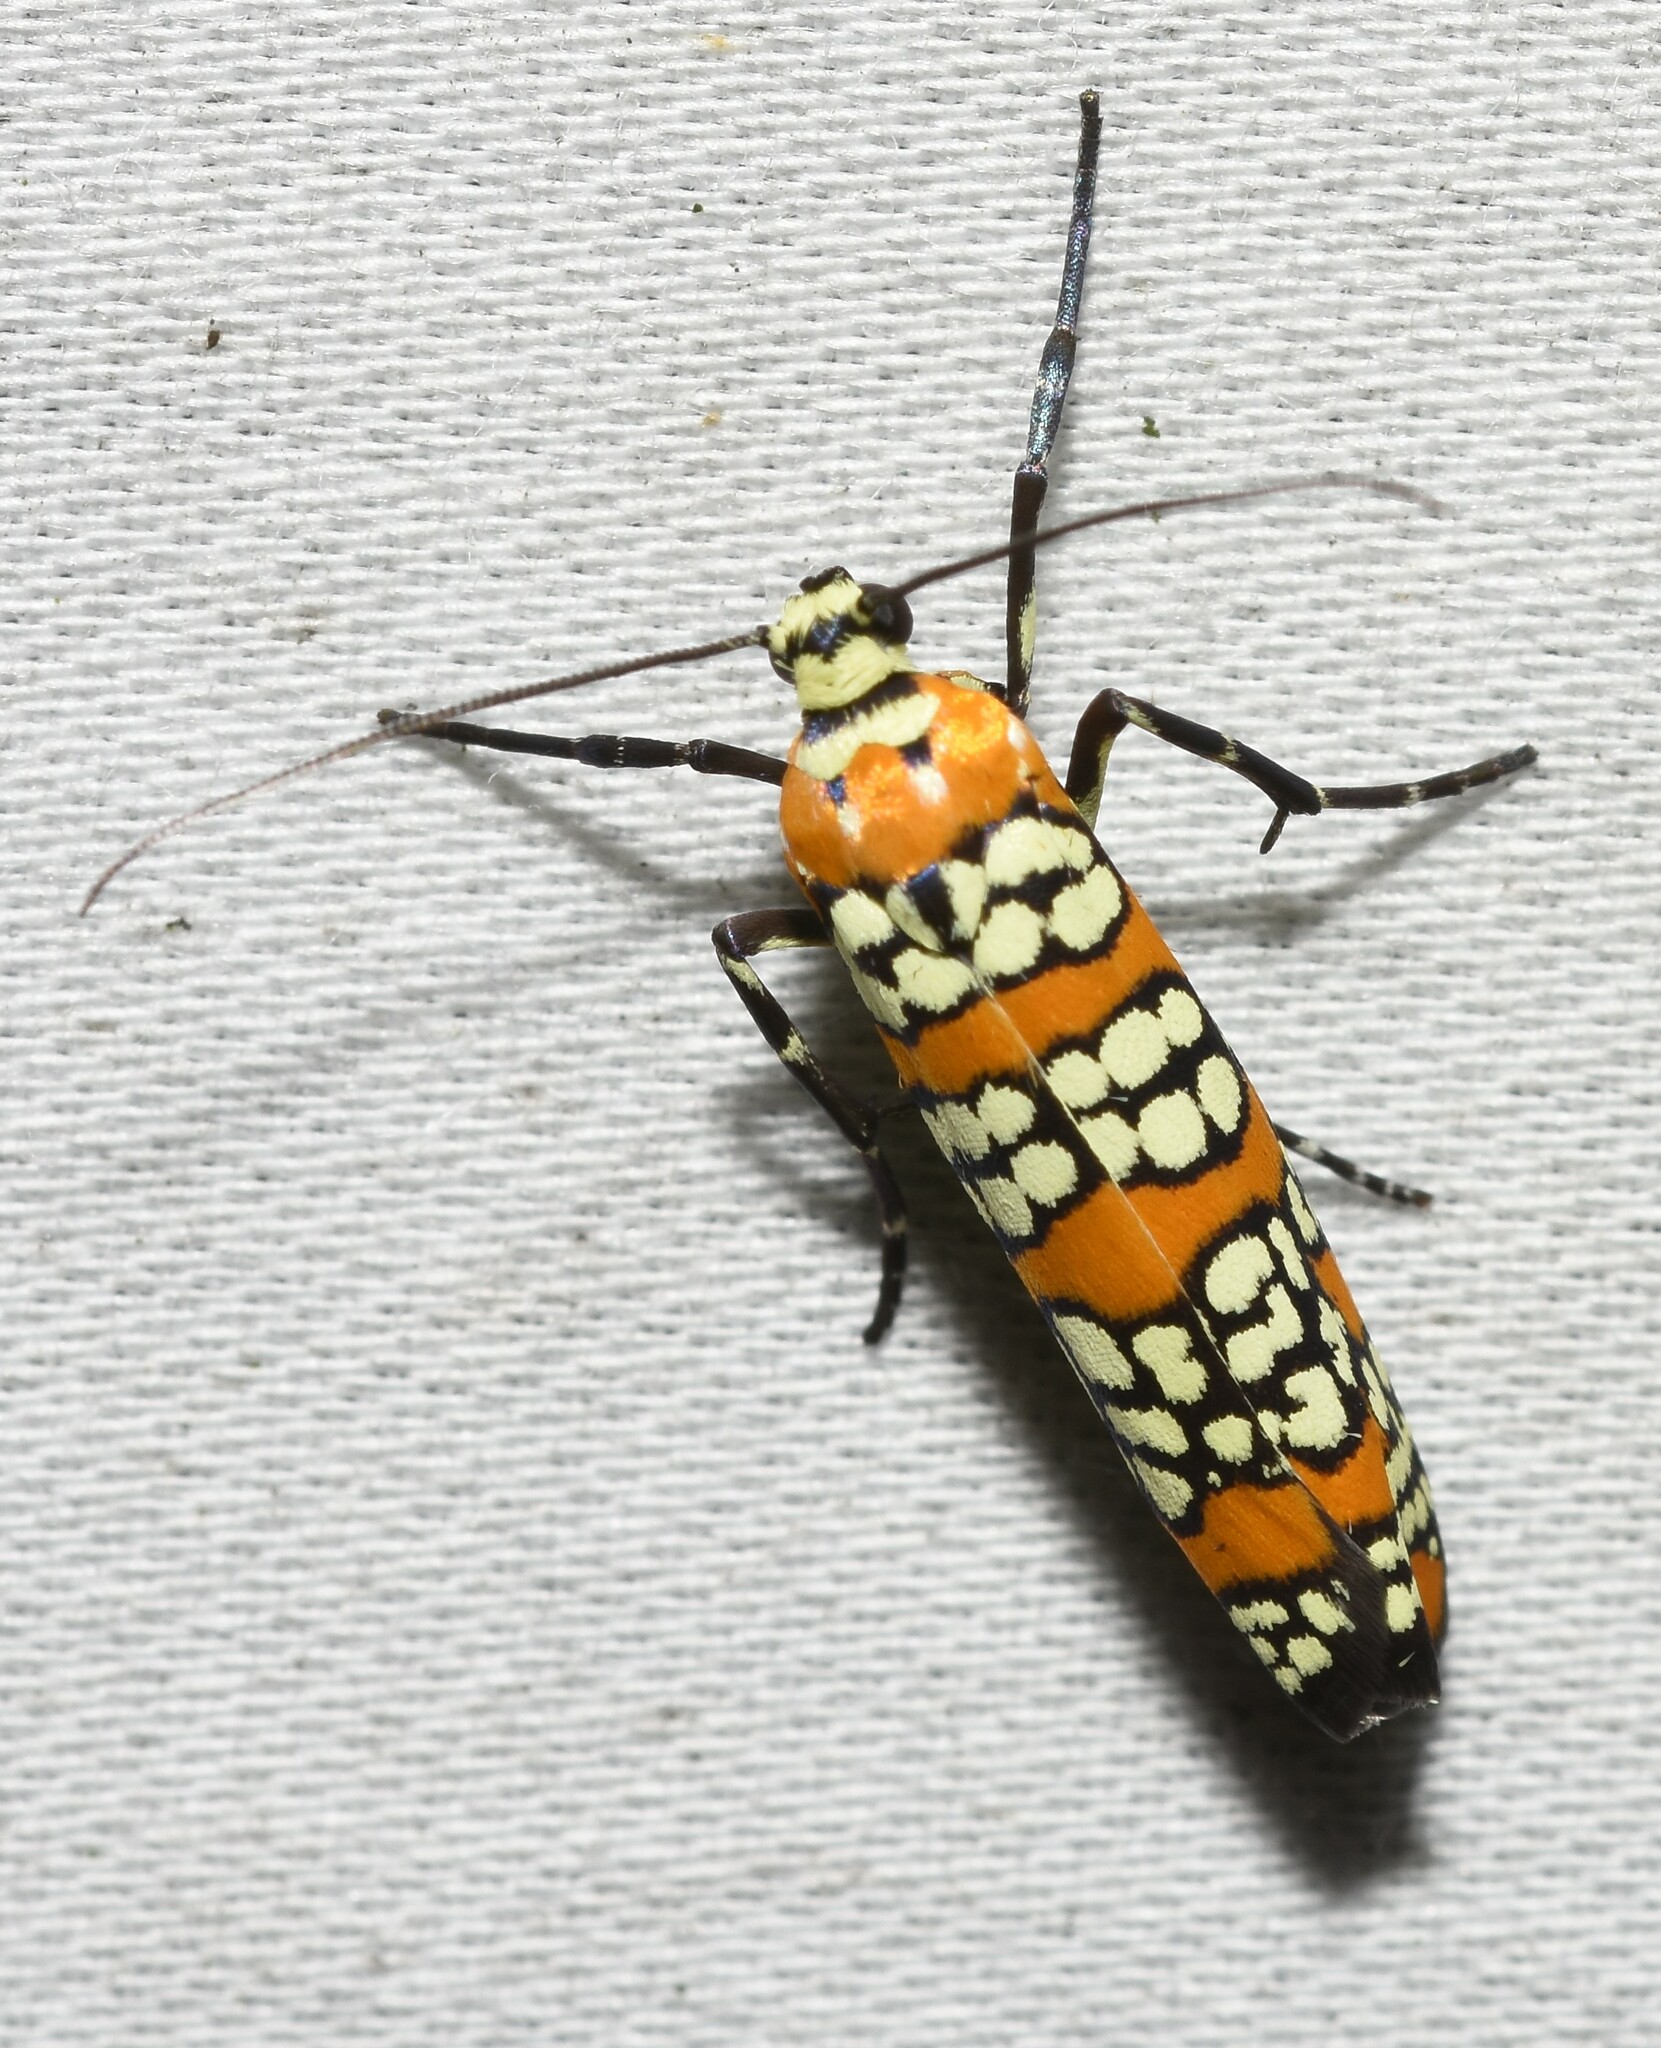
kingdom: Animalia
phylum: Arthropoda
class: Insecta
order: Lepidoptera
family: Attevidae
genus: Atteva
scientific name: Atteva punctella
